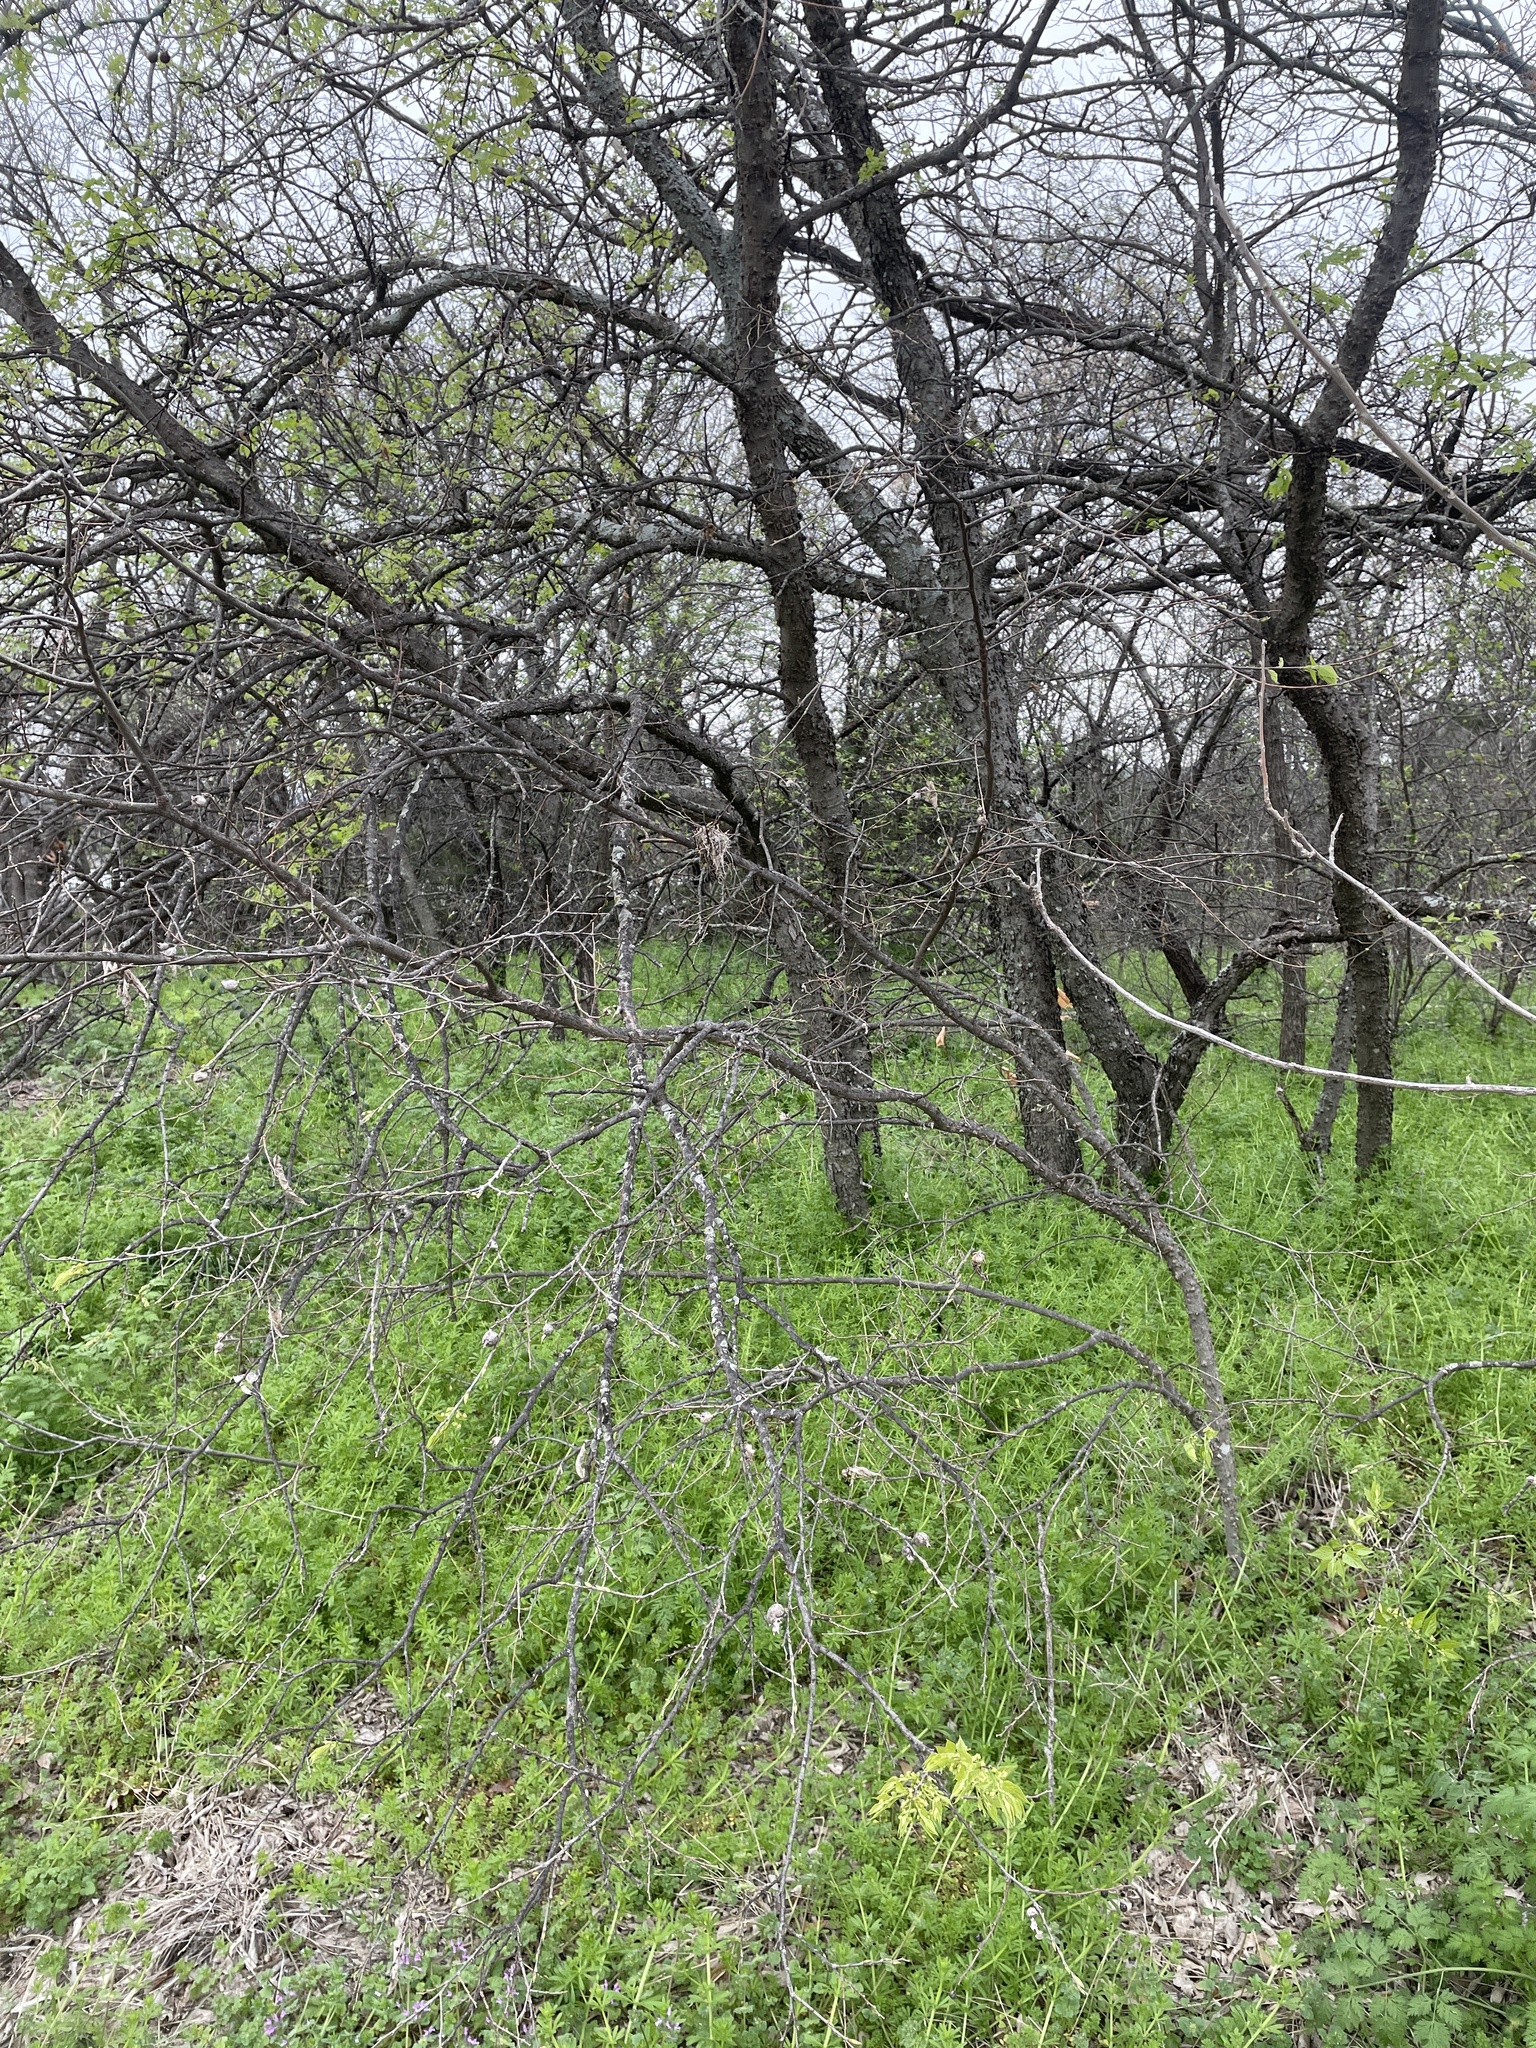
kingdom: Plantae
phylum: Tracheophyta
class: Magnoliopsida
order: Rosales
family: Cannabaceae
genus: Celtis
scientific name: Celtis laevigata
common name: Sugarberry
